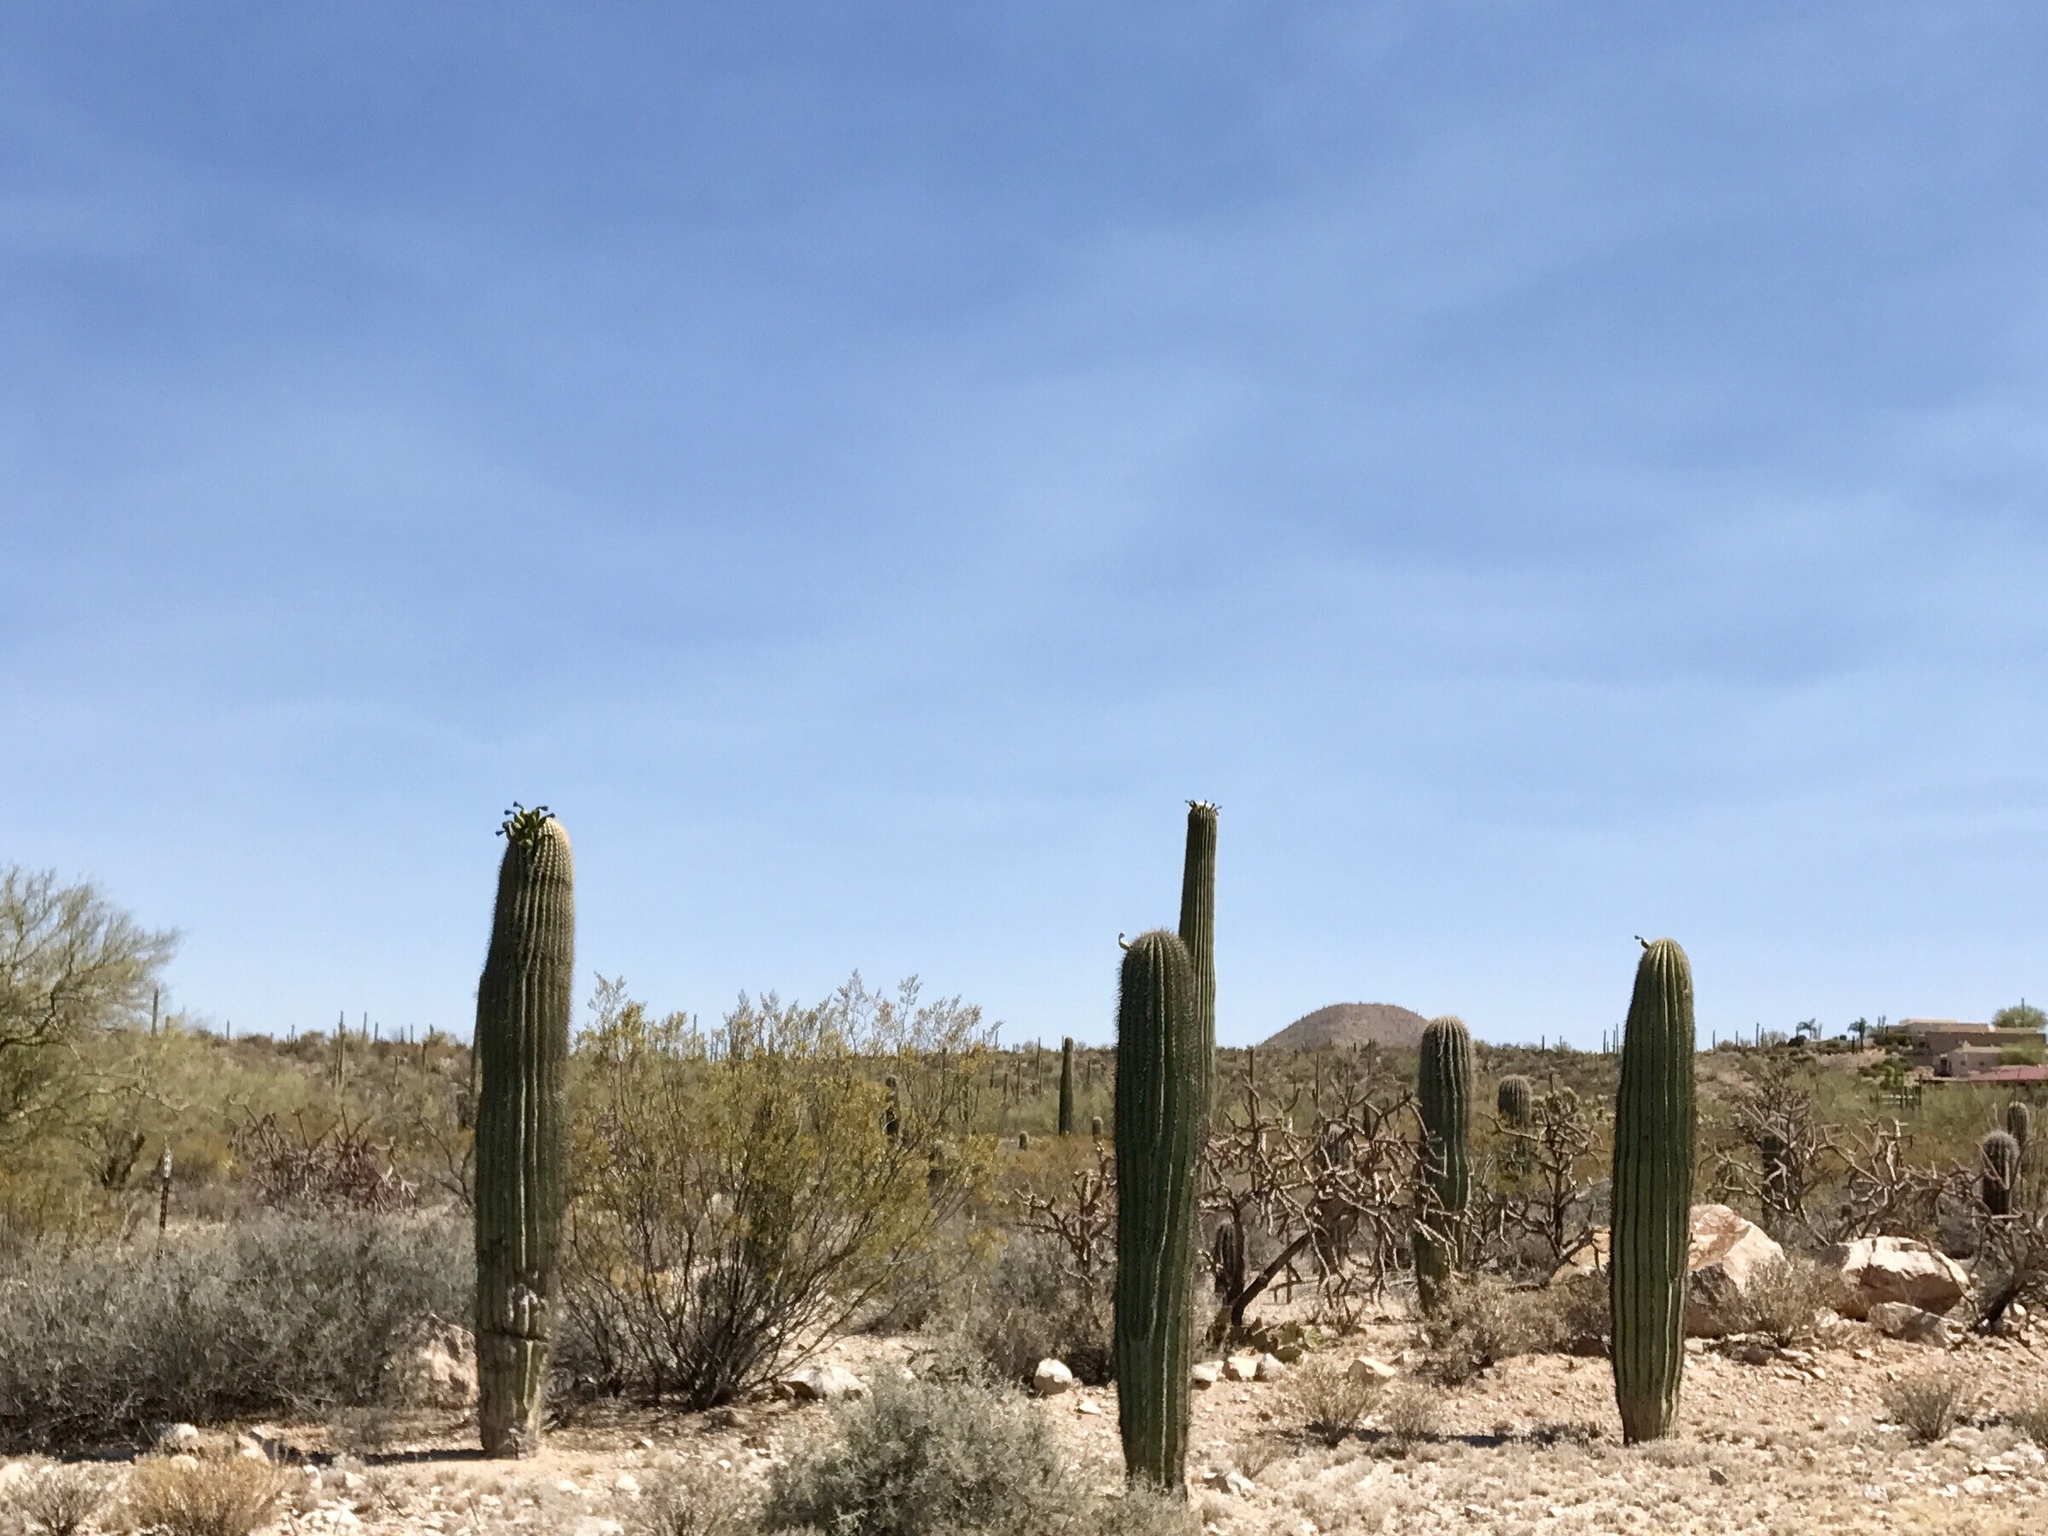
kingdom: Plantae
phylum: Tracheophyta
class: Magnoliopsida
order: Caryophyllales
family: Cactaceae
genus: Carnegiea
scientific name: Carnegiea gigantea
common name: Saguaro
